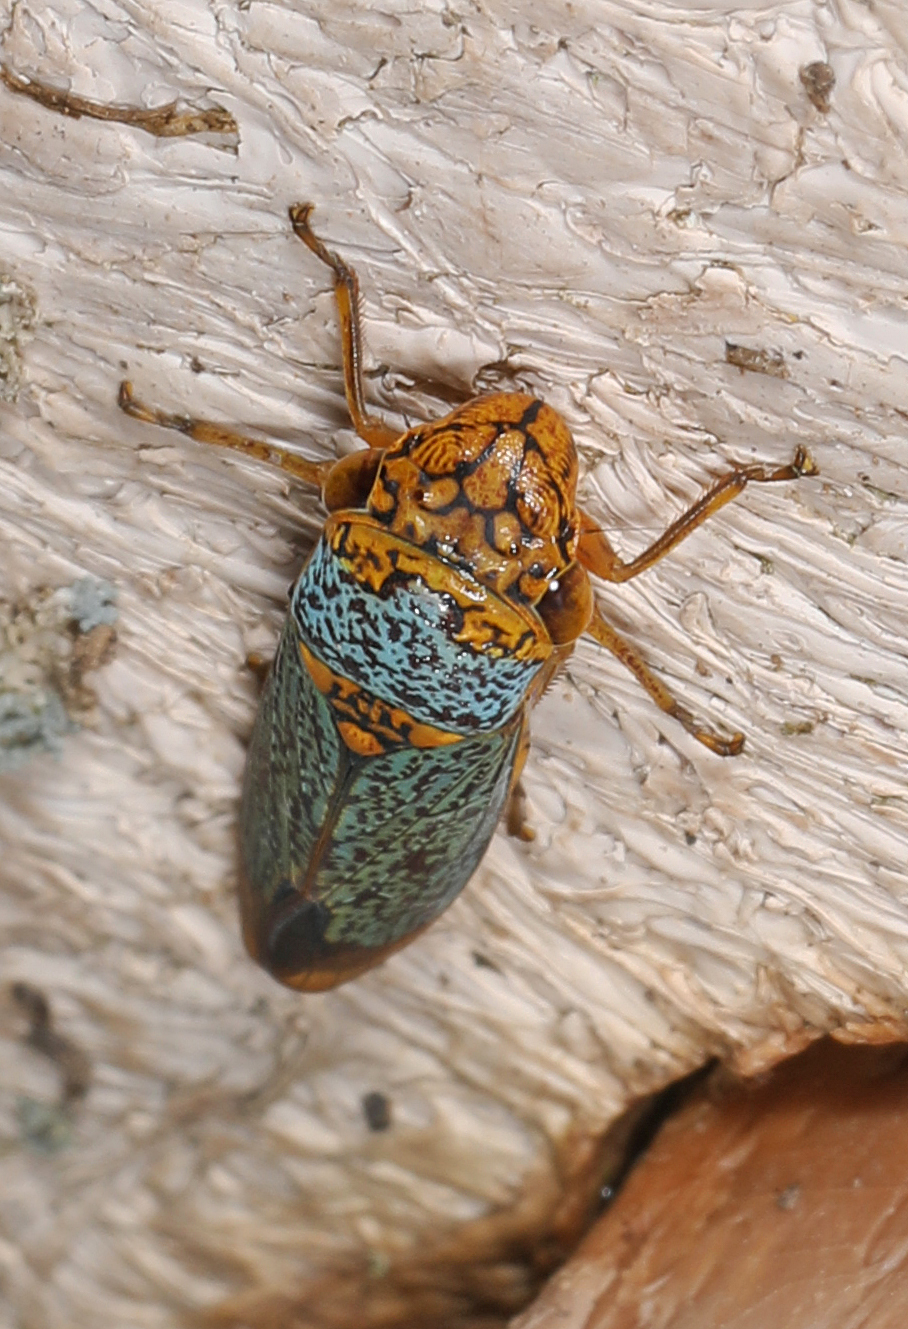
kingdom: Animalia
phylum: Arthropoda
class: Insecta
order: Hemiptera
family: Cicadellidae
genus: Oncometopia
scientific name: Oncometopia orbona
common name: Broad-headed sharpshooter
